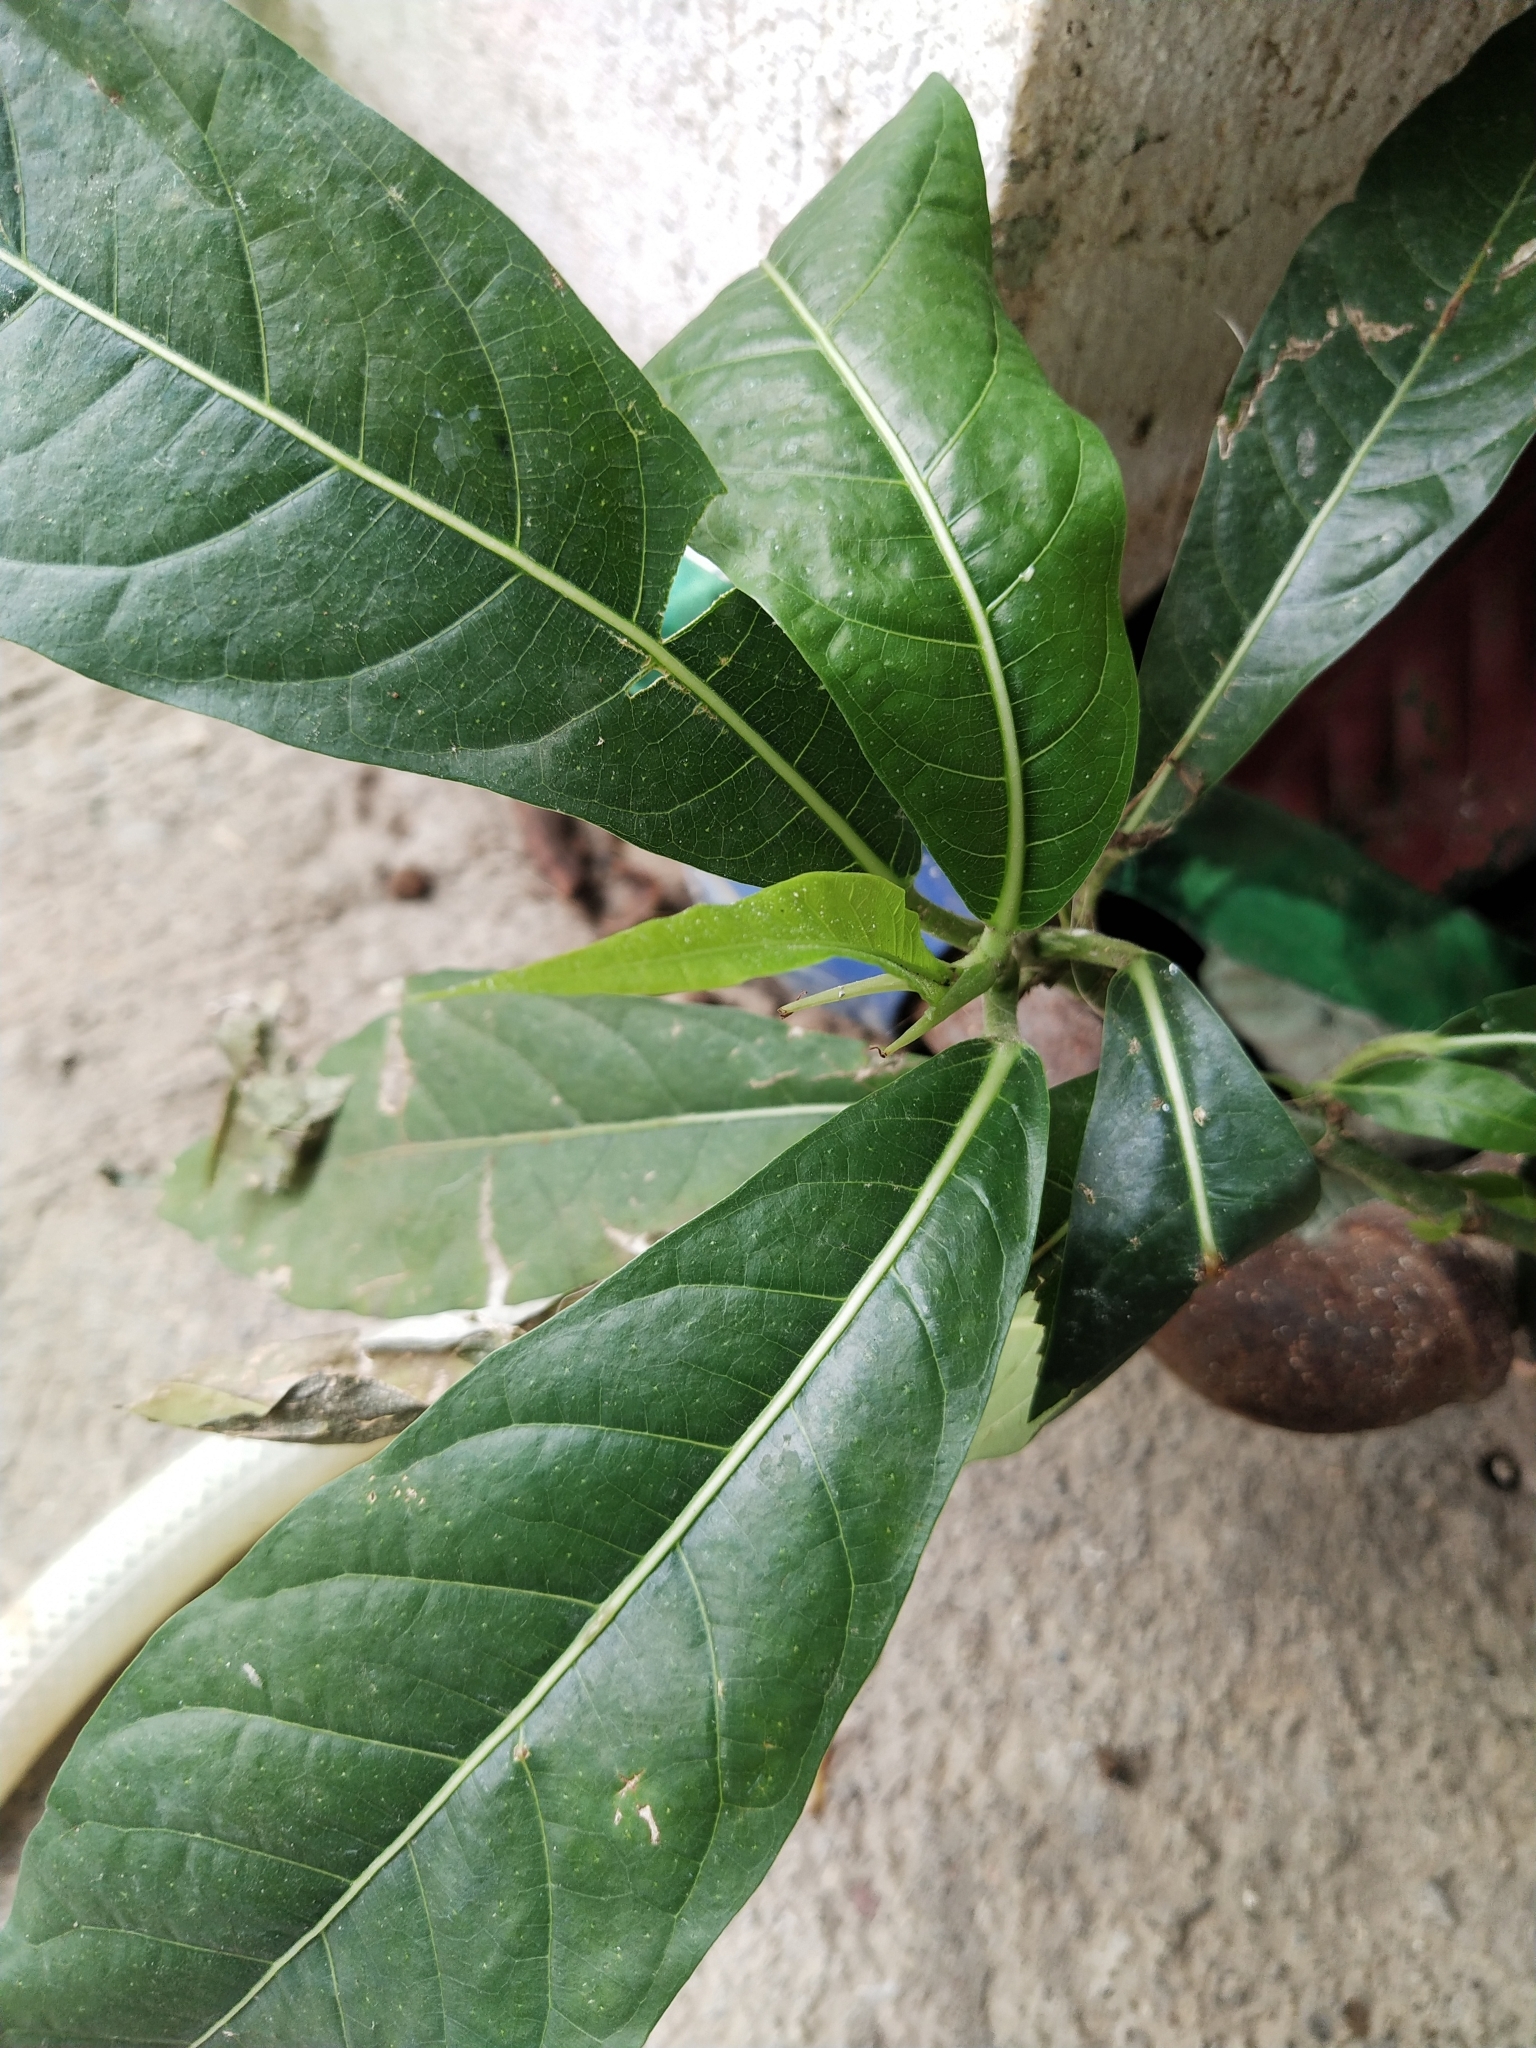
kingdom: Plantae
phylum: Tracheophyta
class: Magnoliopsida
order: Rosales
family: Moraceae
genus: Ficus
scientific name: Ficus nota
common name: Tibig
